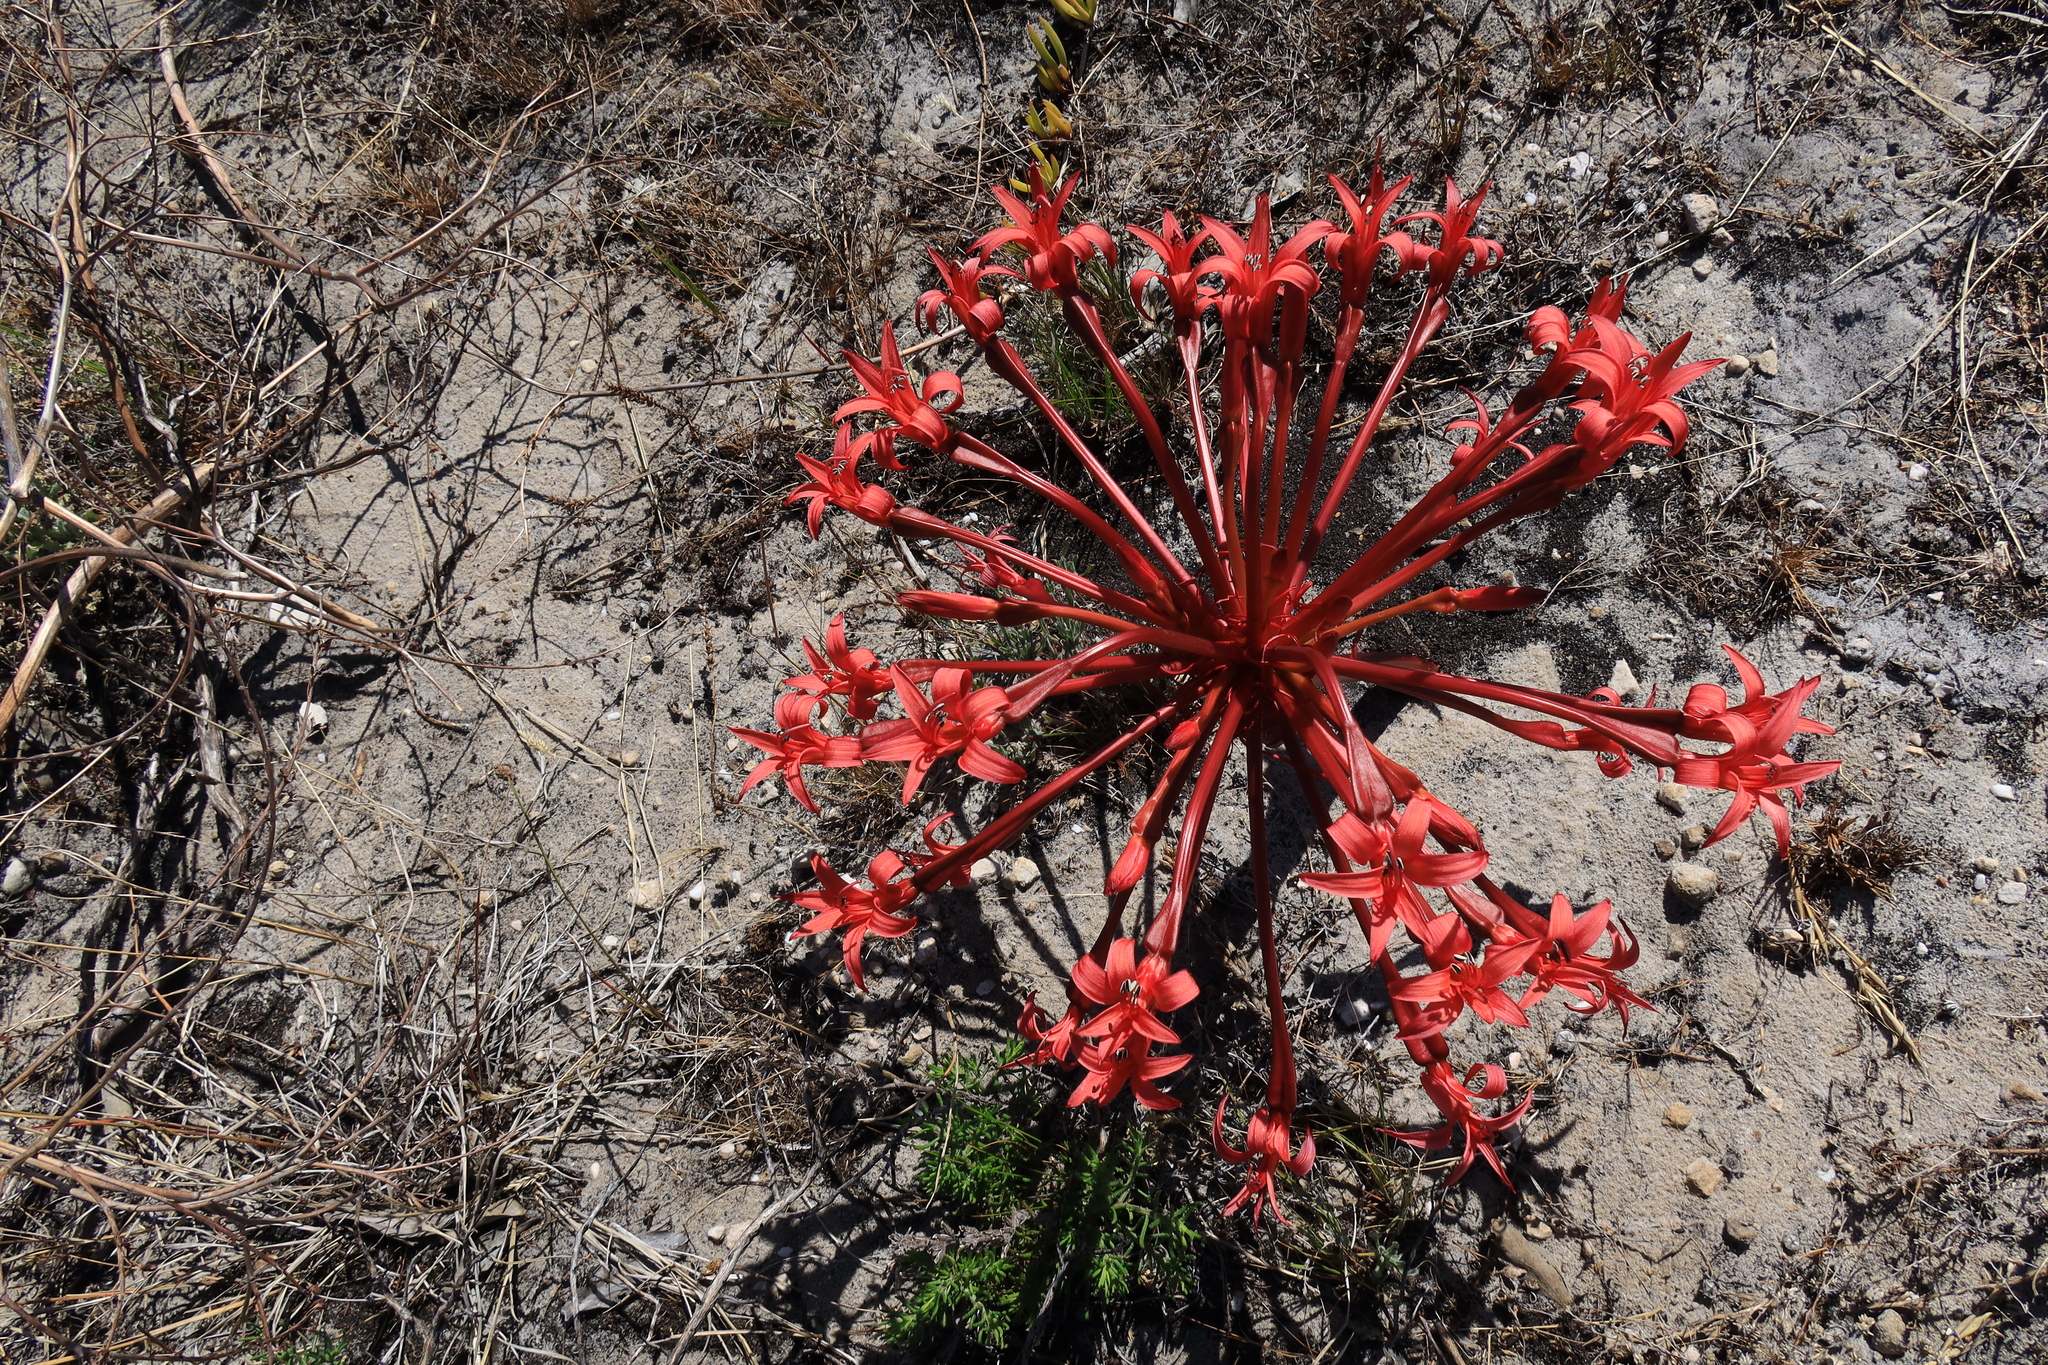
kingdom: Plantae
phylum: Tracheophyta
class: Liliopsida
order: Asparagales
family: Amaryllidaceae
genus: Brunsvigia
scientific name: Brunsvigia orientalis
